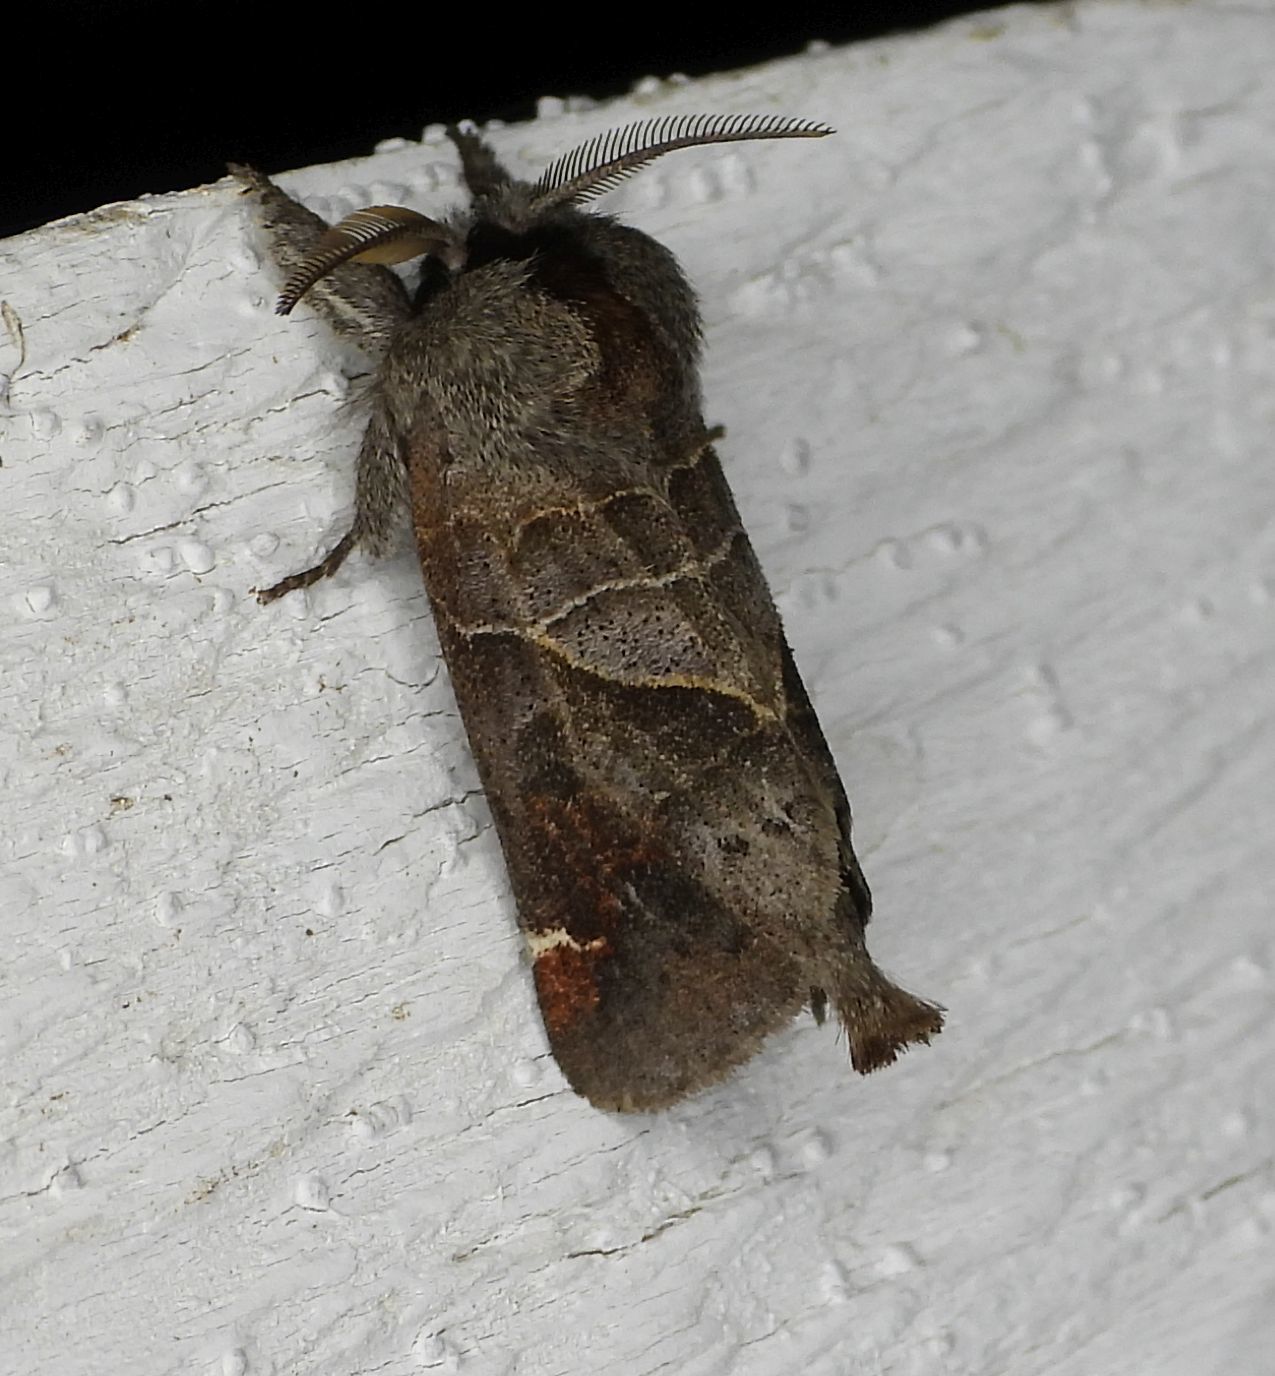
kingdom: Animalia
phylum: Arthropoda
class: Insecta
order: Lepidoptera
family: Notodontidae
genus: Clostera
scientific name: Clostera apicalis
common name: Apical prominent
